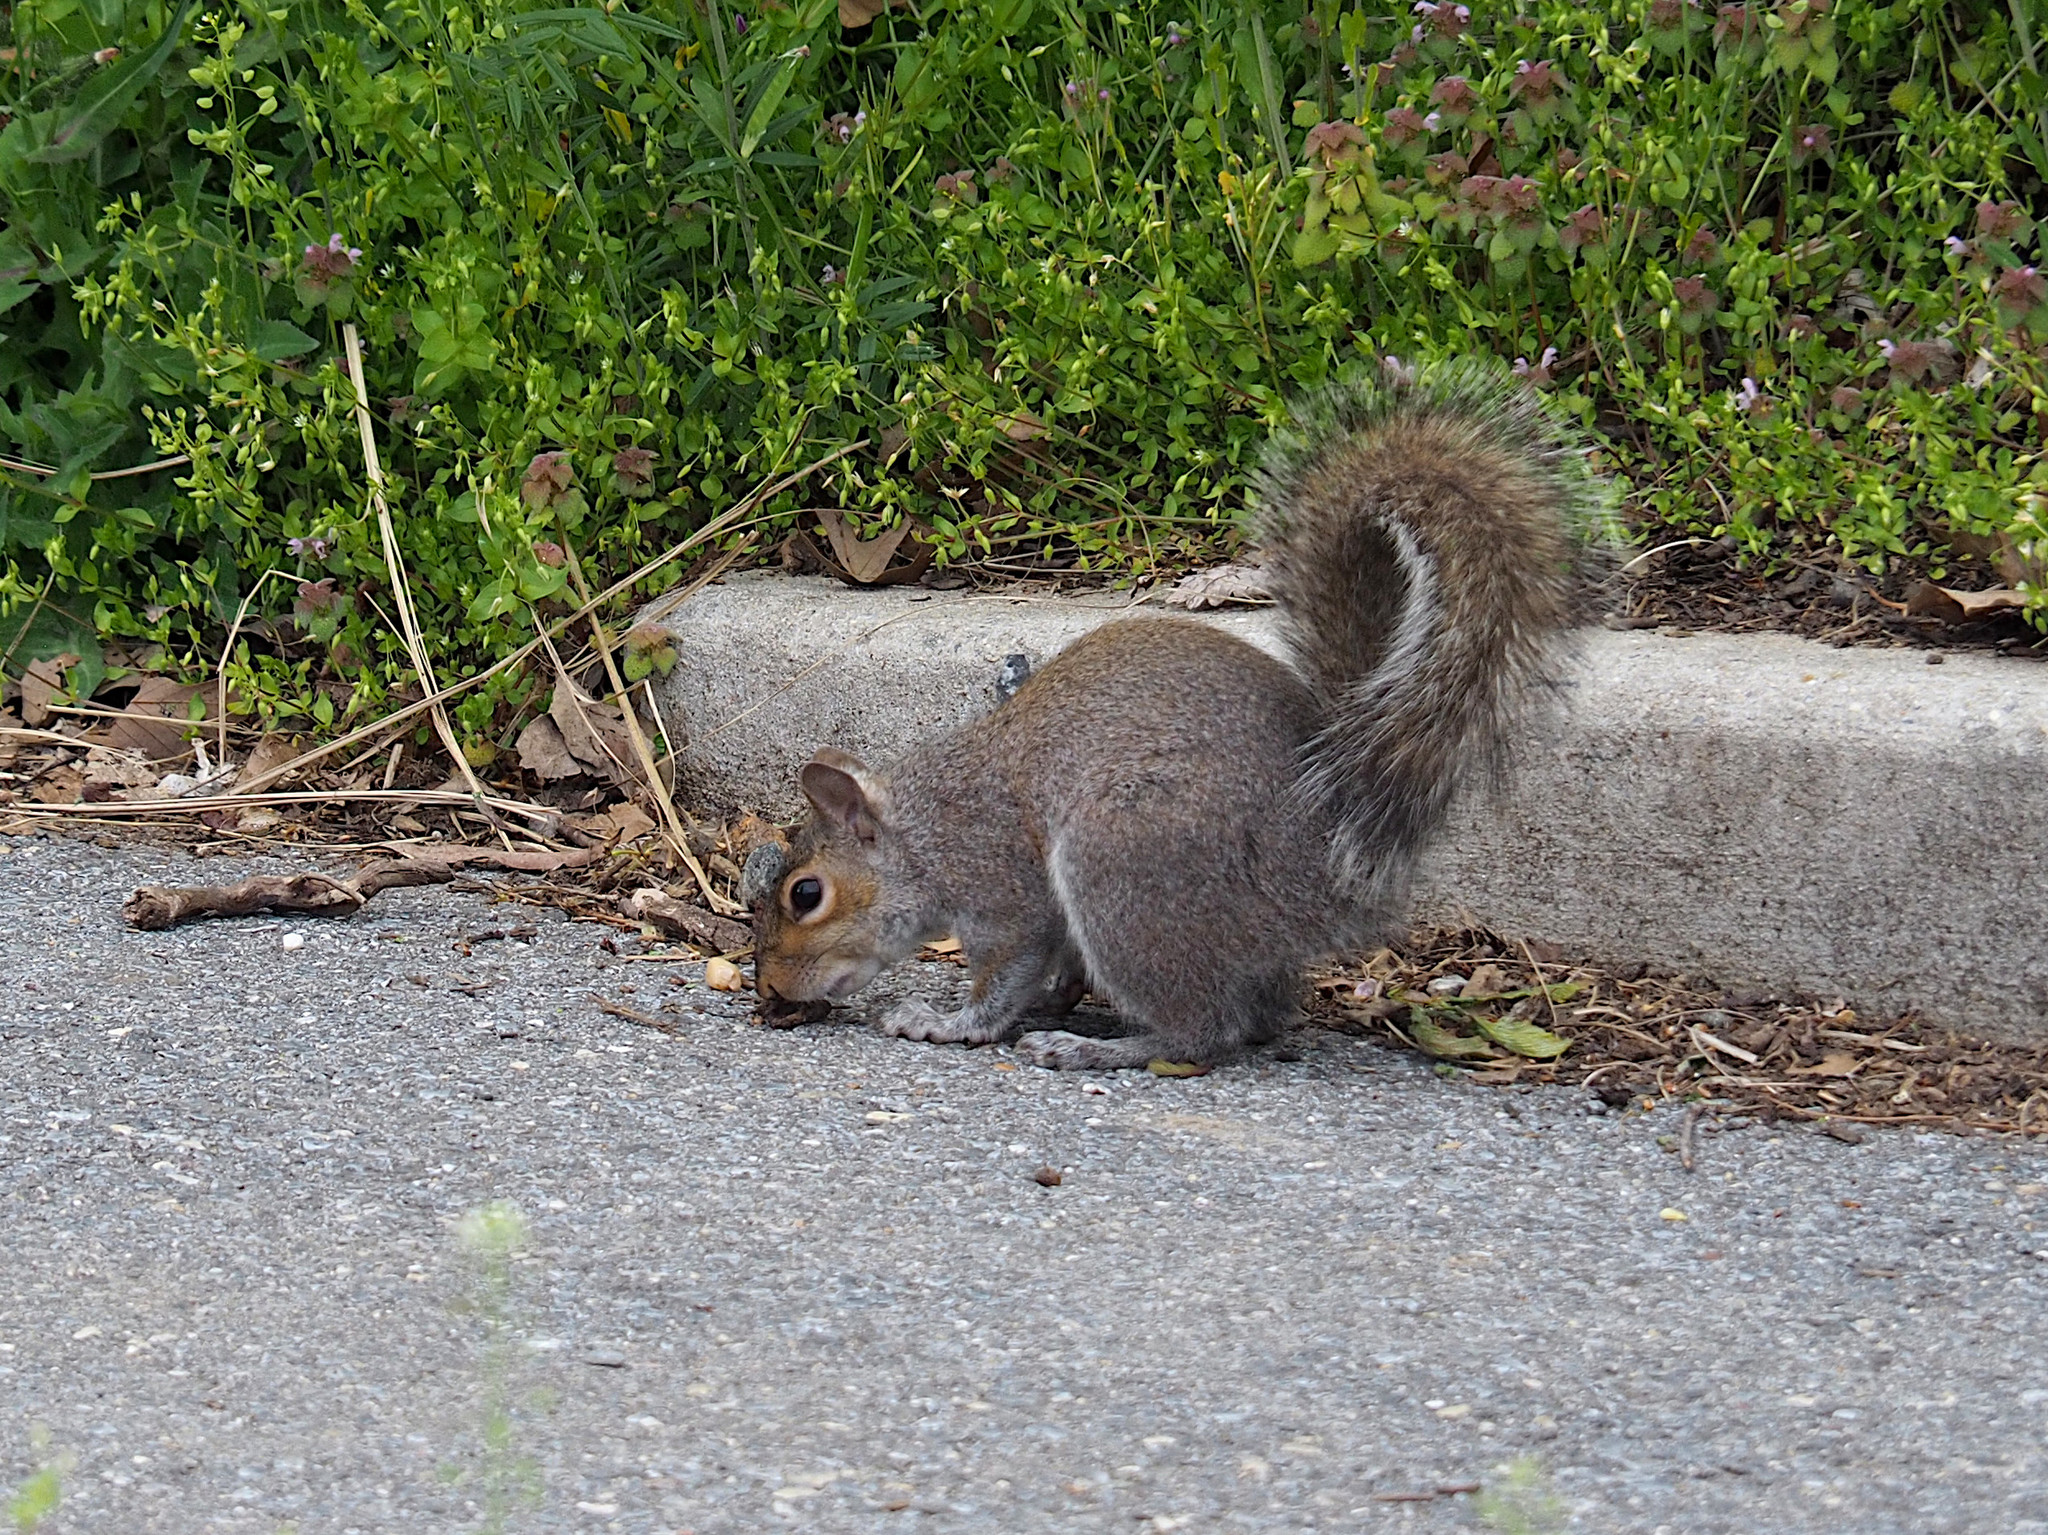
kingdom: Animalia
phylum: Chordata
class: Mammalia
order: Rodentia
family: Sciuridae
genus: Sciurus
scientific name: Sciurus carolinensis
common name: Eastern gray squirrel
